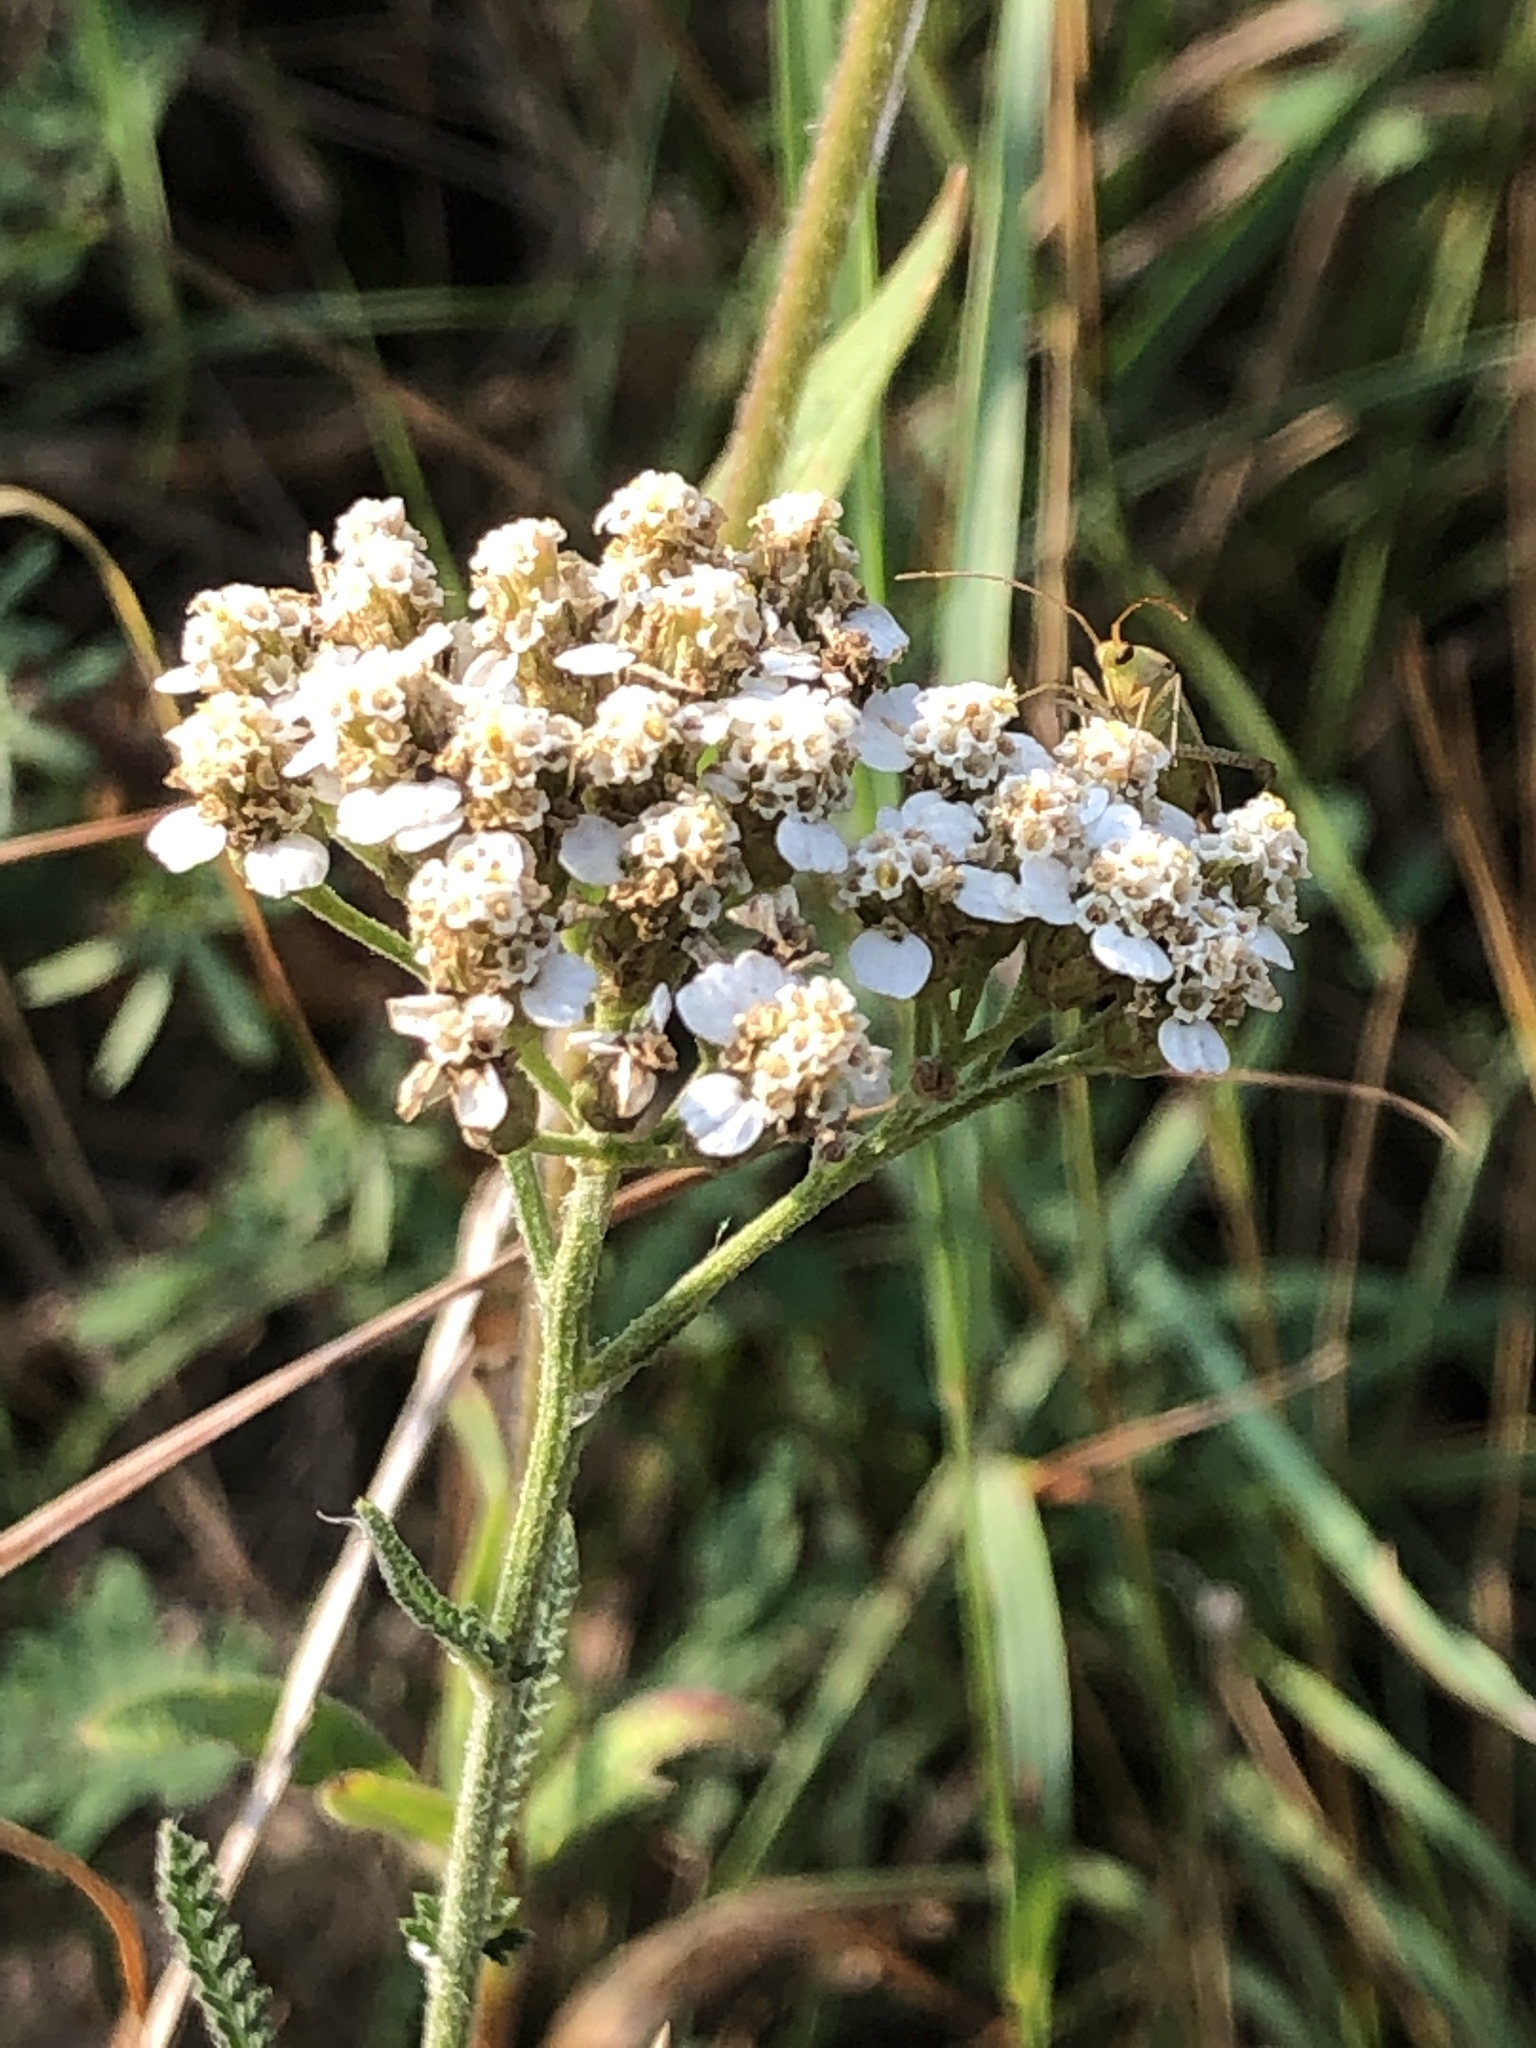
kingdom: Plantae
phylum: Tracheophyta
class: Magnoliopsida
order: Asterales
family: Asteraceae
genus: Achillea
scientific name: Achillea millefolium
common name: Yarrow
